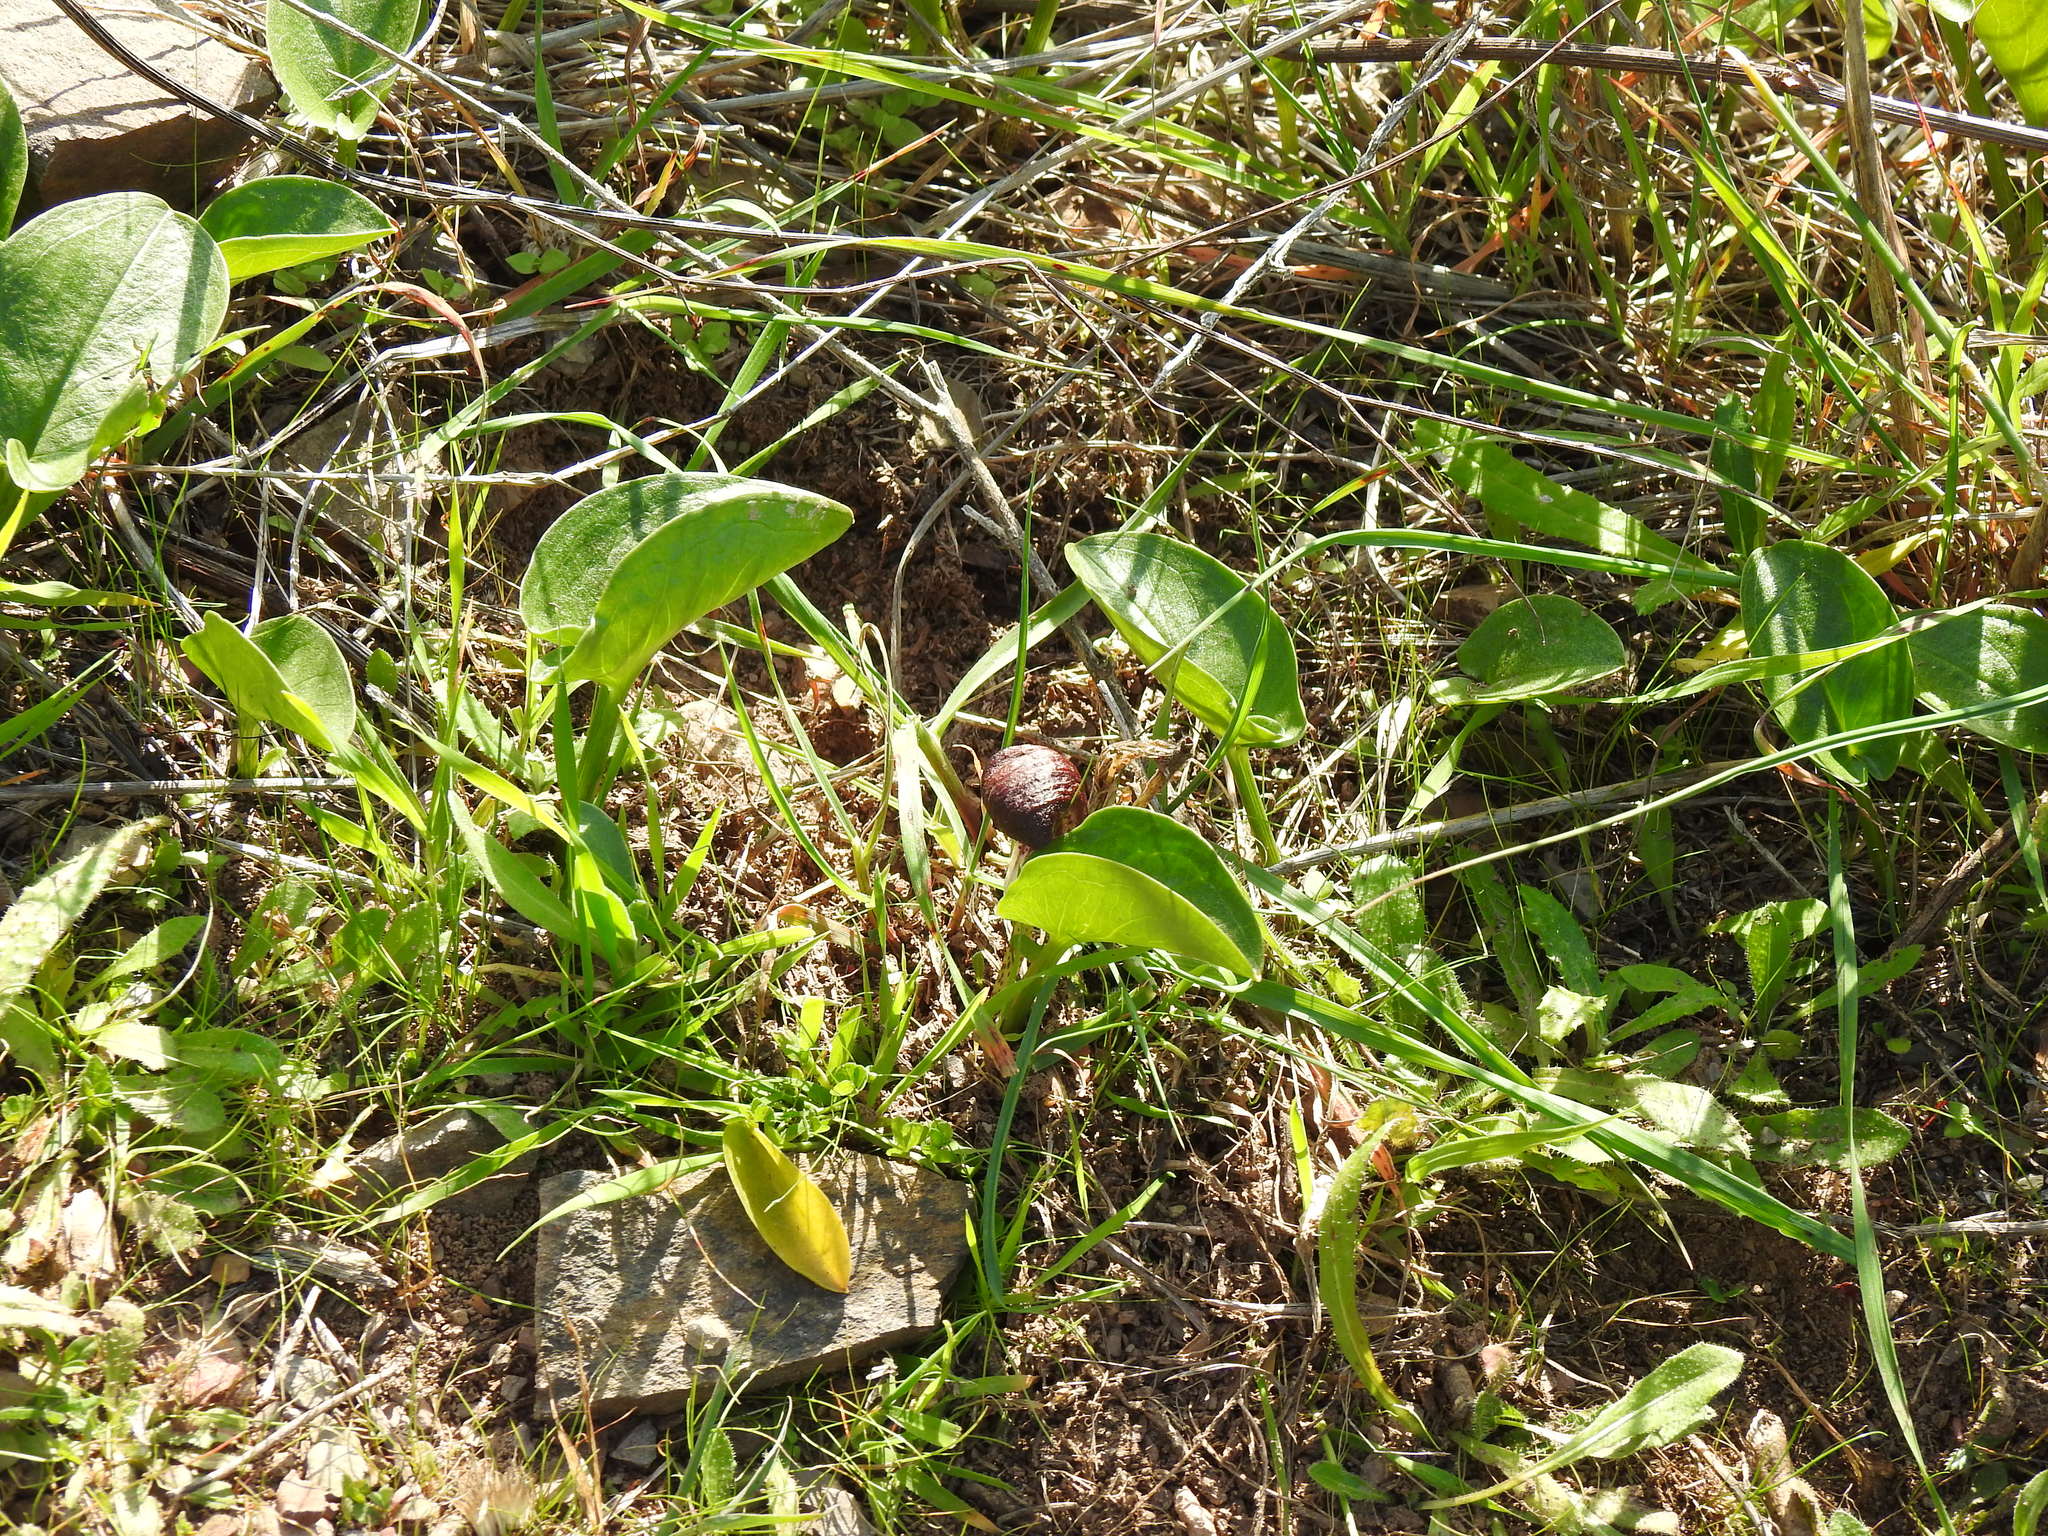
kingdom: Plantae
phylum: Tracheophyta
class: Liliopsida
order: Alismatales
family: Araceae
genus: Arisarum
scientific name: Arisarum simorrhinum
